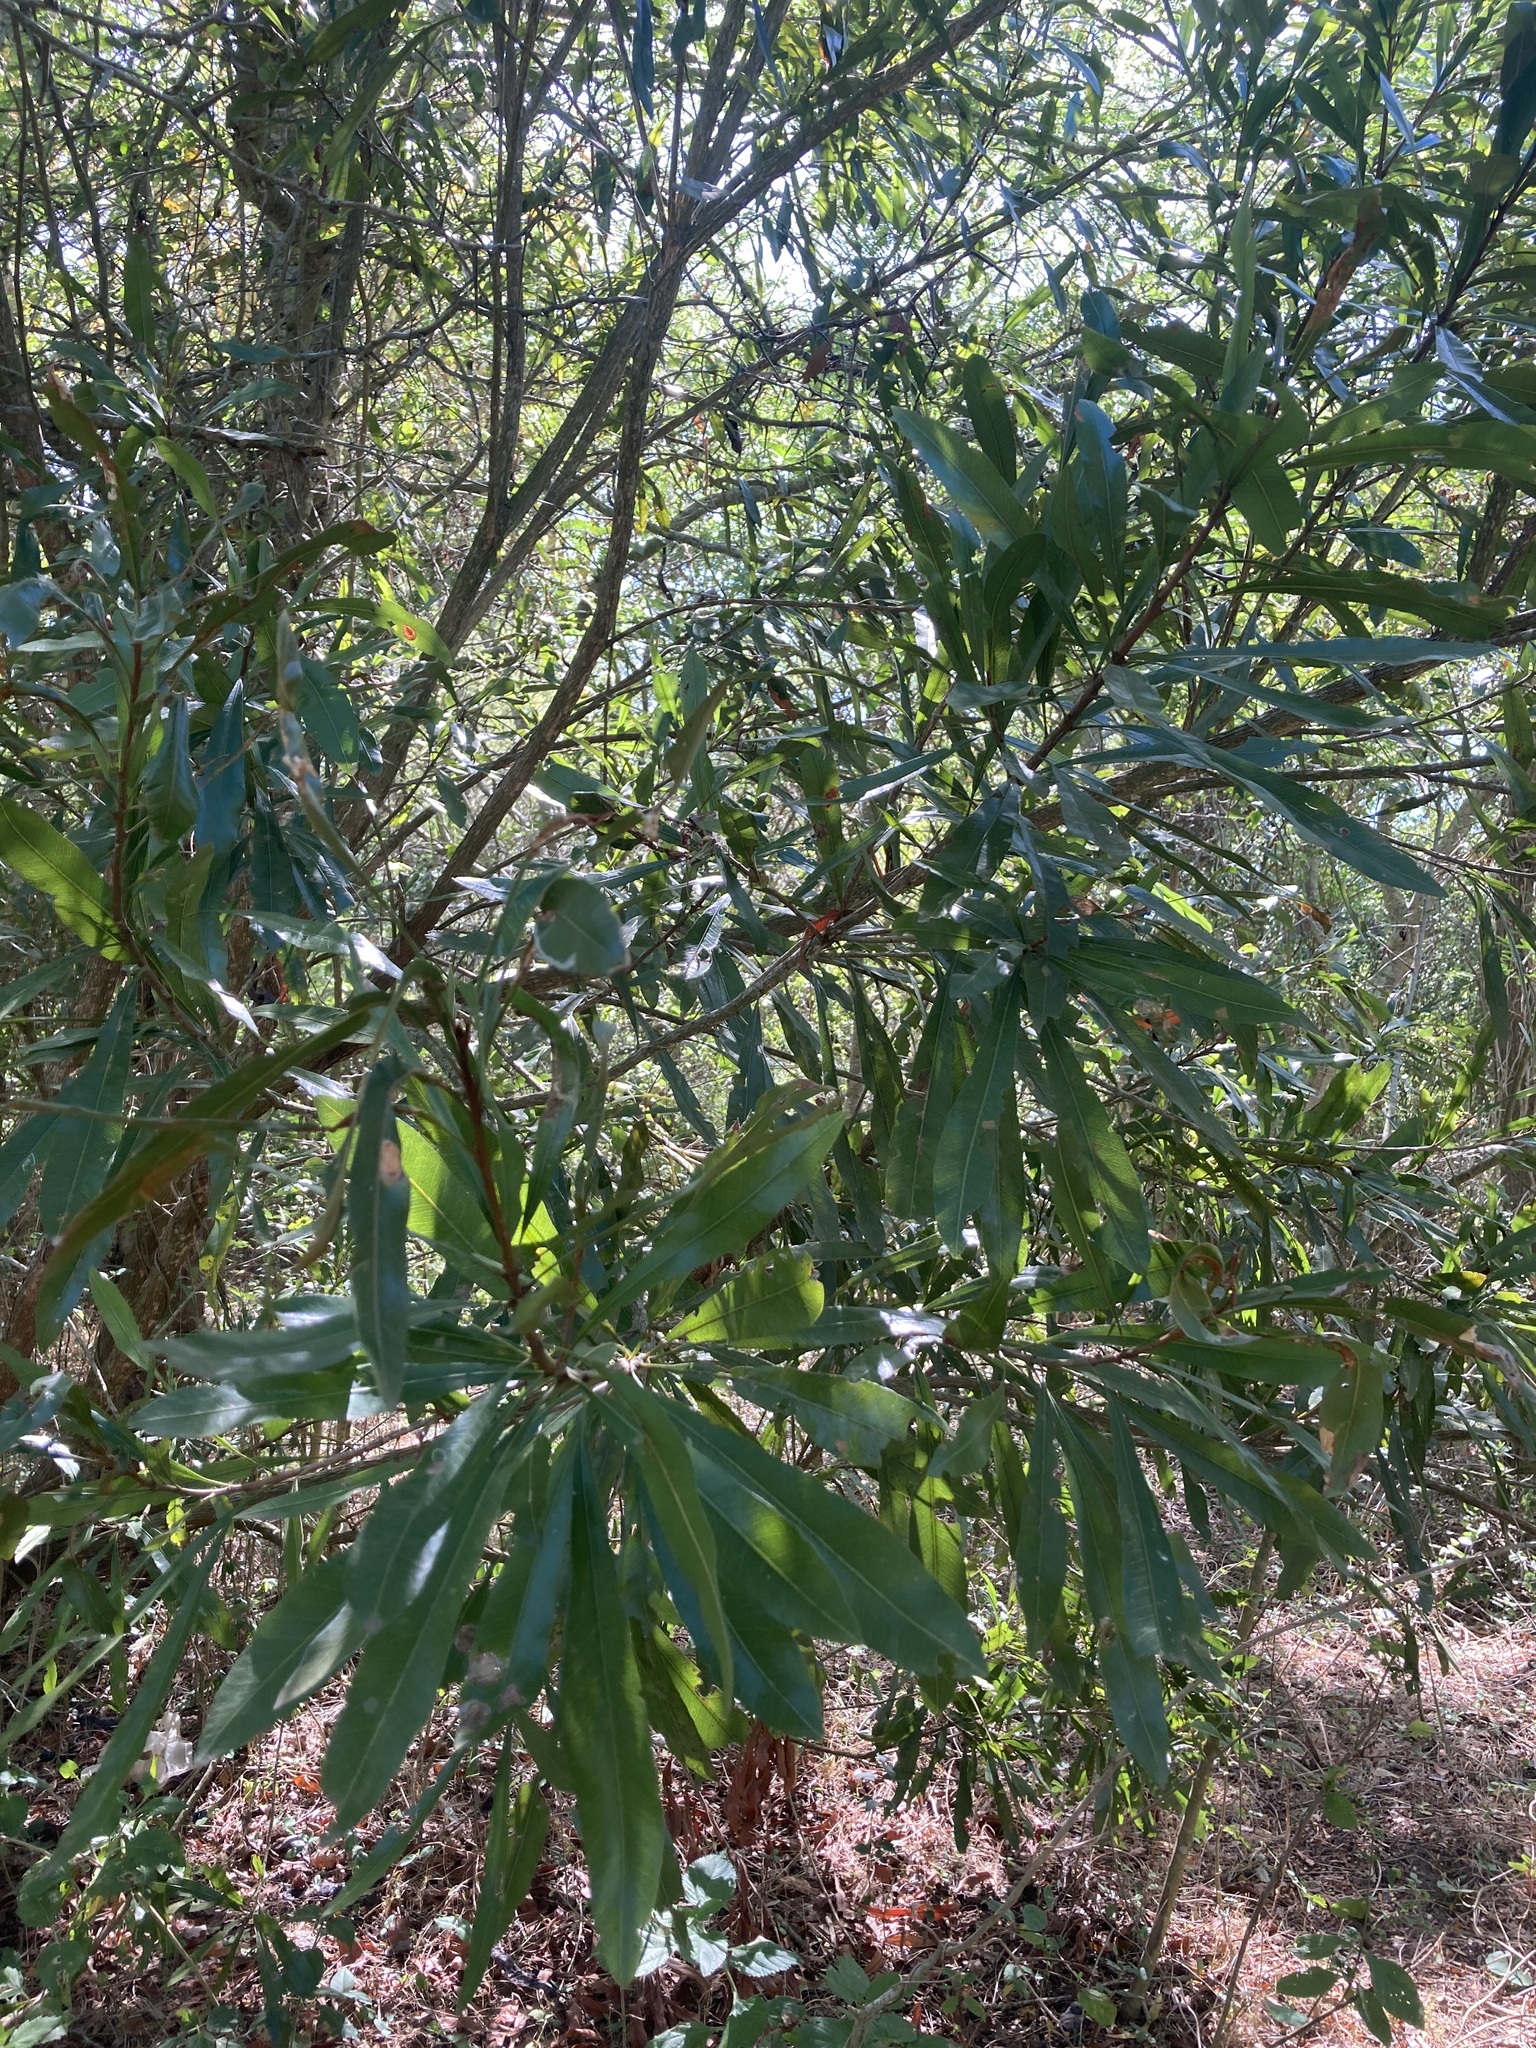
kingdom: Plantae
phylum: Tracheophyta
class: Magnoliopsida
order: Ericales
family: Sapotaceae
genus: Labatia
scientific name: Labatia salicifolia
